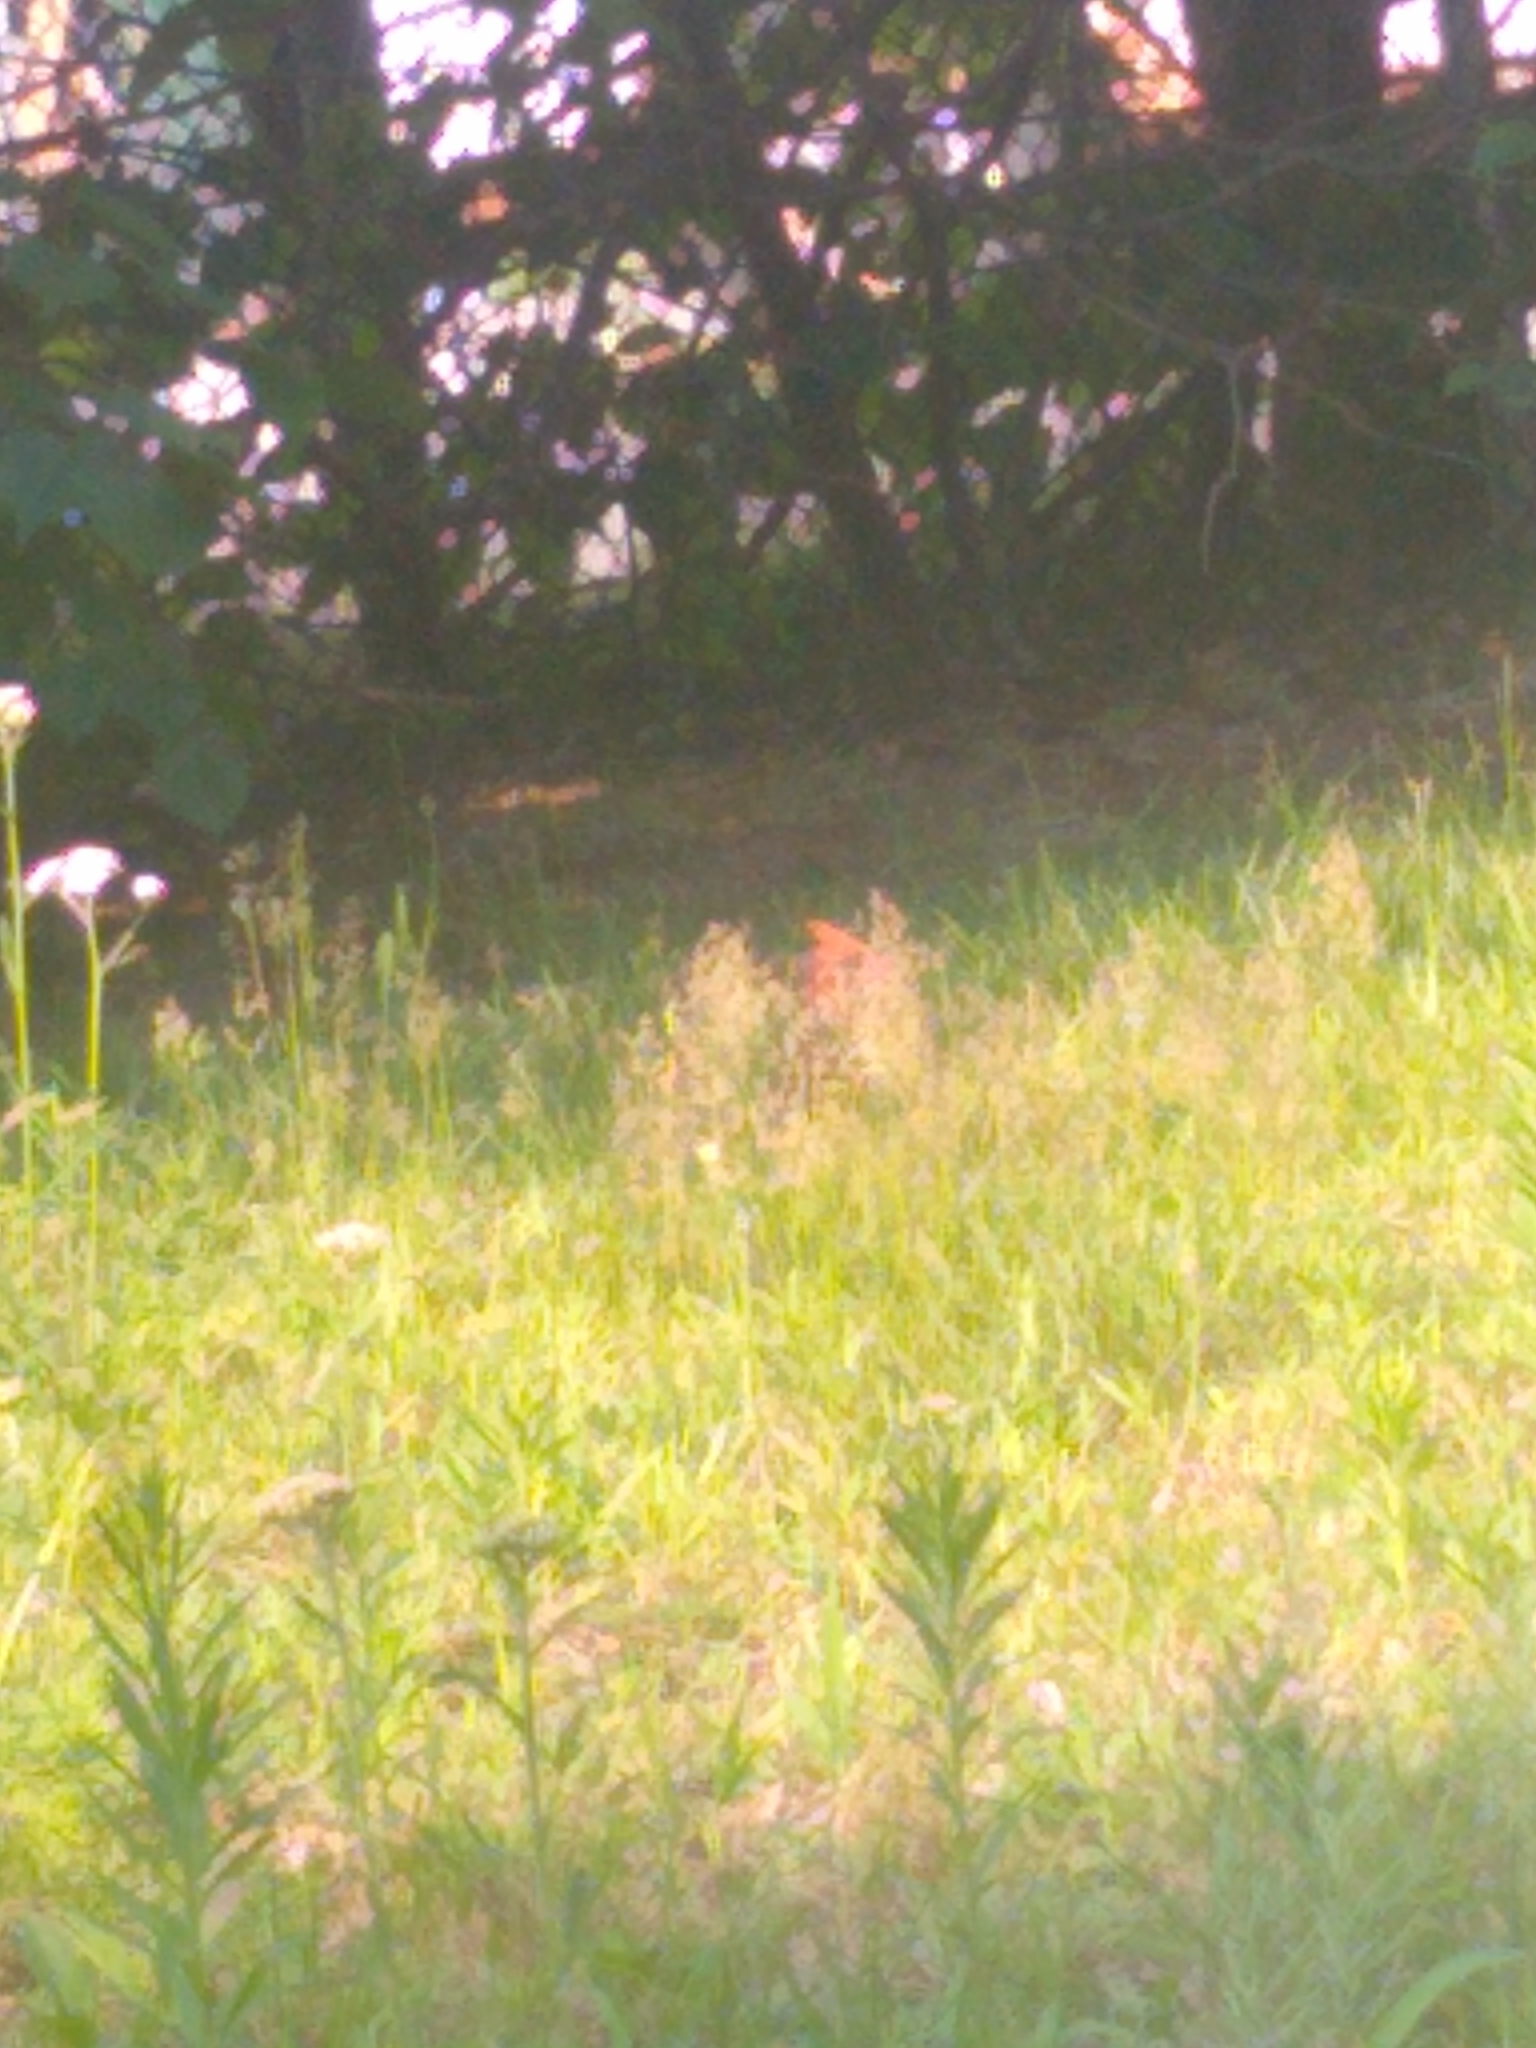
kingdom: Animalia
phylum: Chordata
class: Aves
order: Passeriformes
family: Cardinalidae
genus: Cardinalis
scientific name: Cardinalis cardinalis
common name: Northern cardinal
